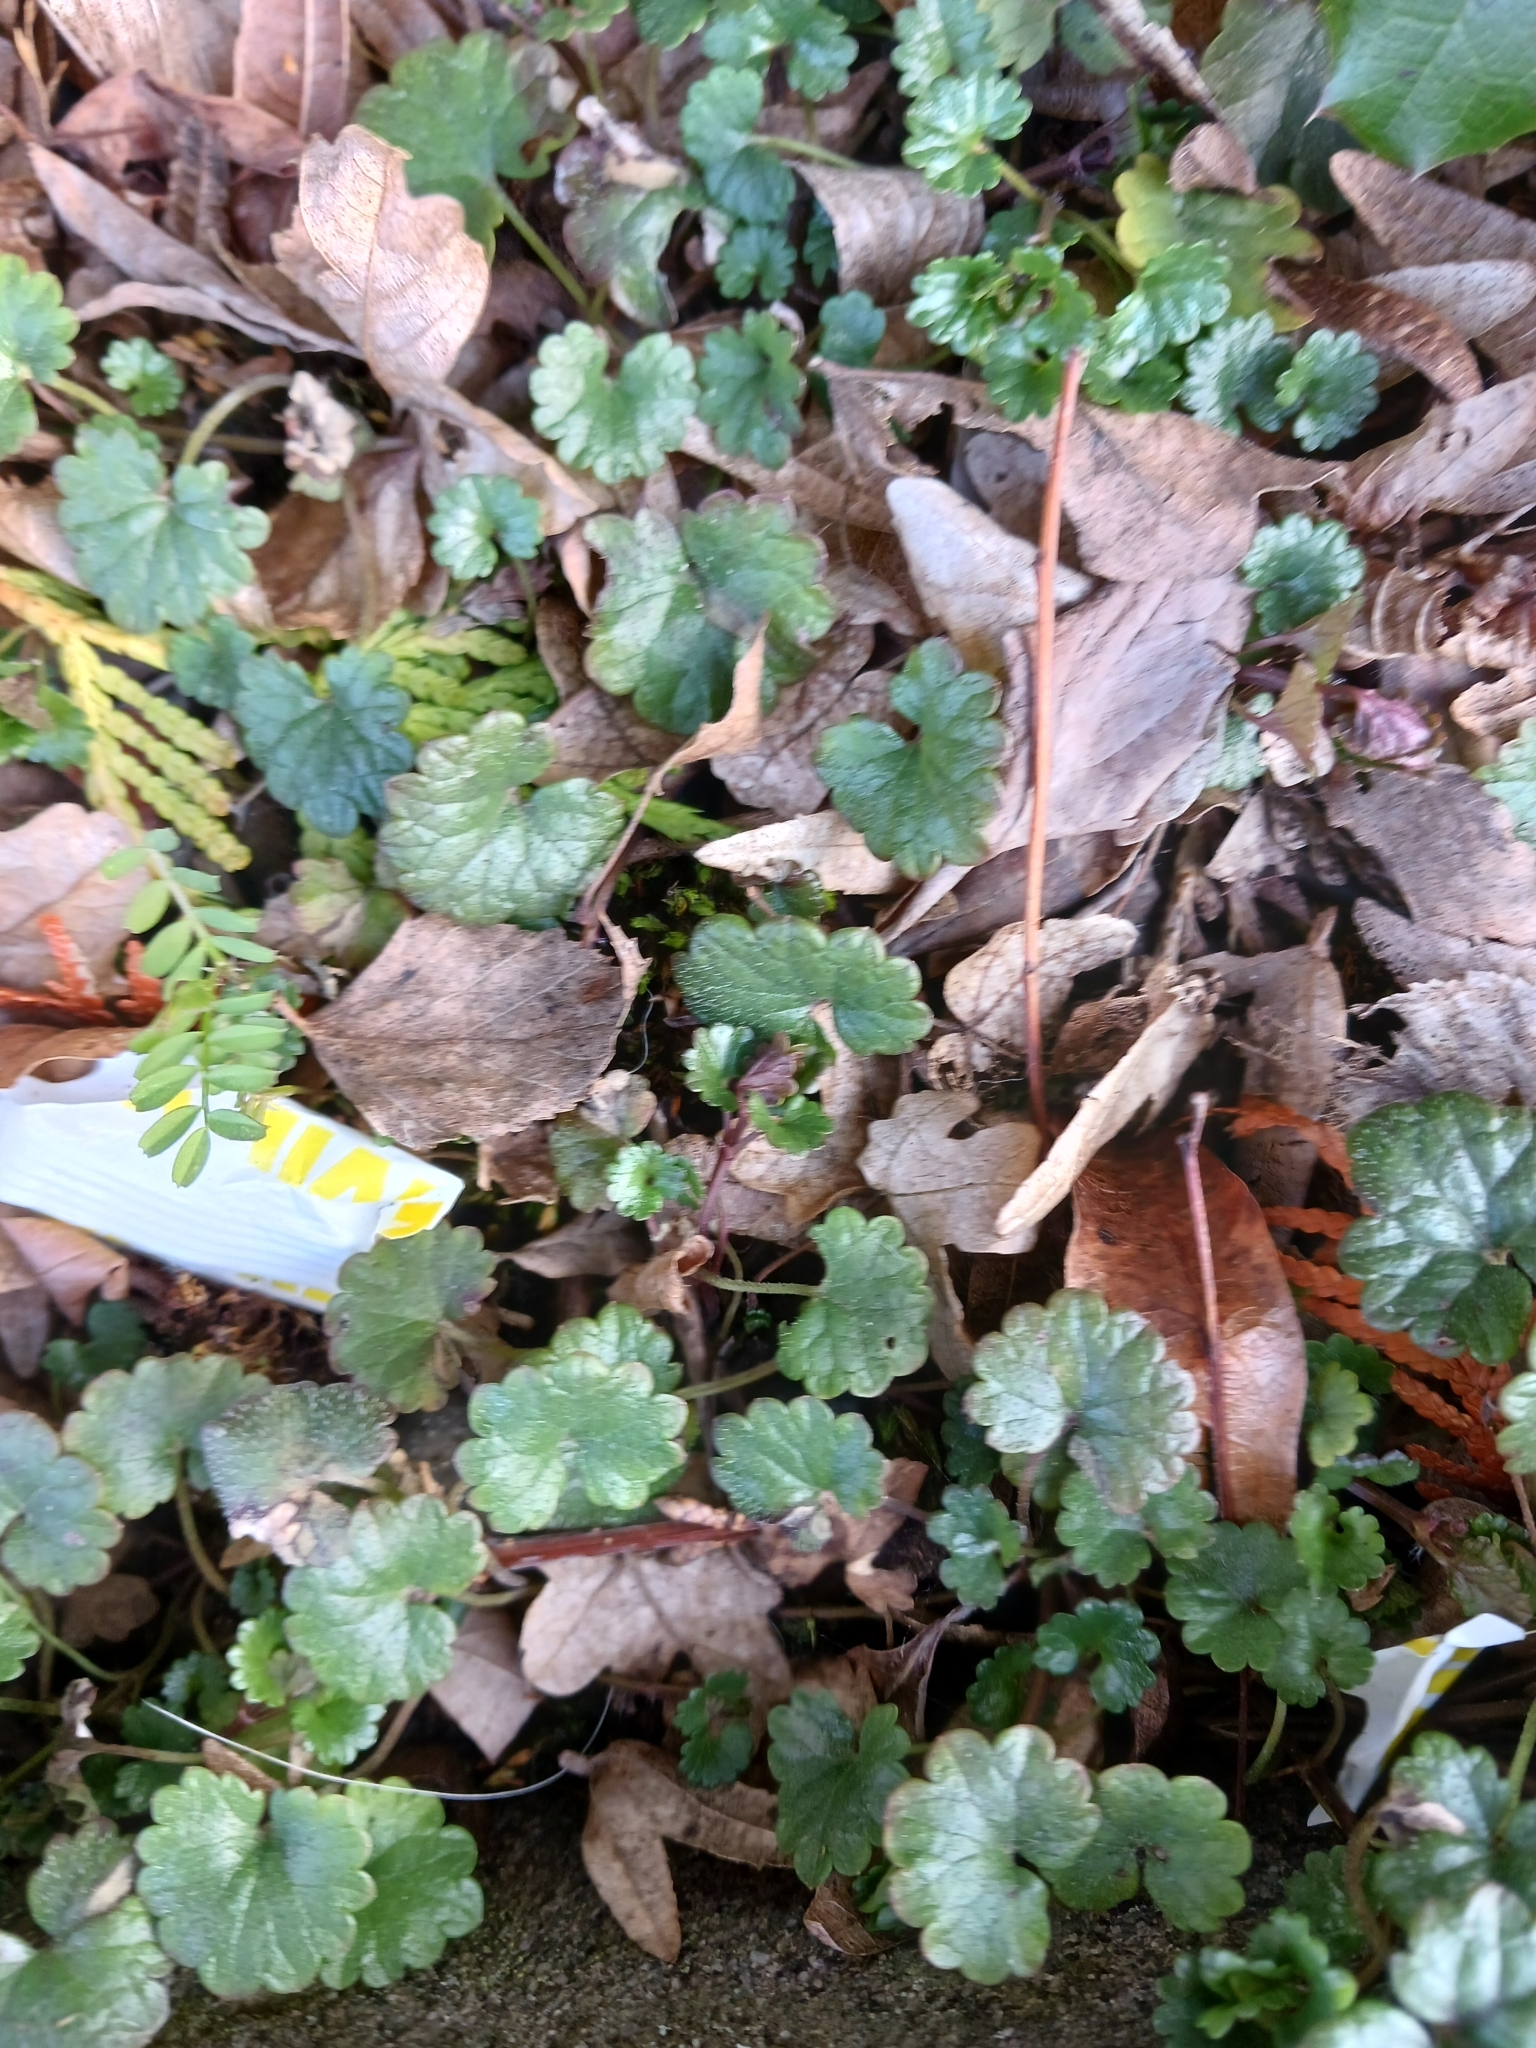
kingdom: Plantae
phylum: Tracheophyta
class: Magnoliopsida
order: Lamiales
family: Lamiaceae
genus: Glechoma
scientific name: Glechoma hederacea
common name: Ground ivy
